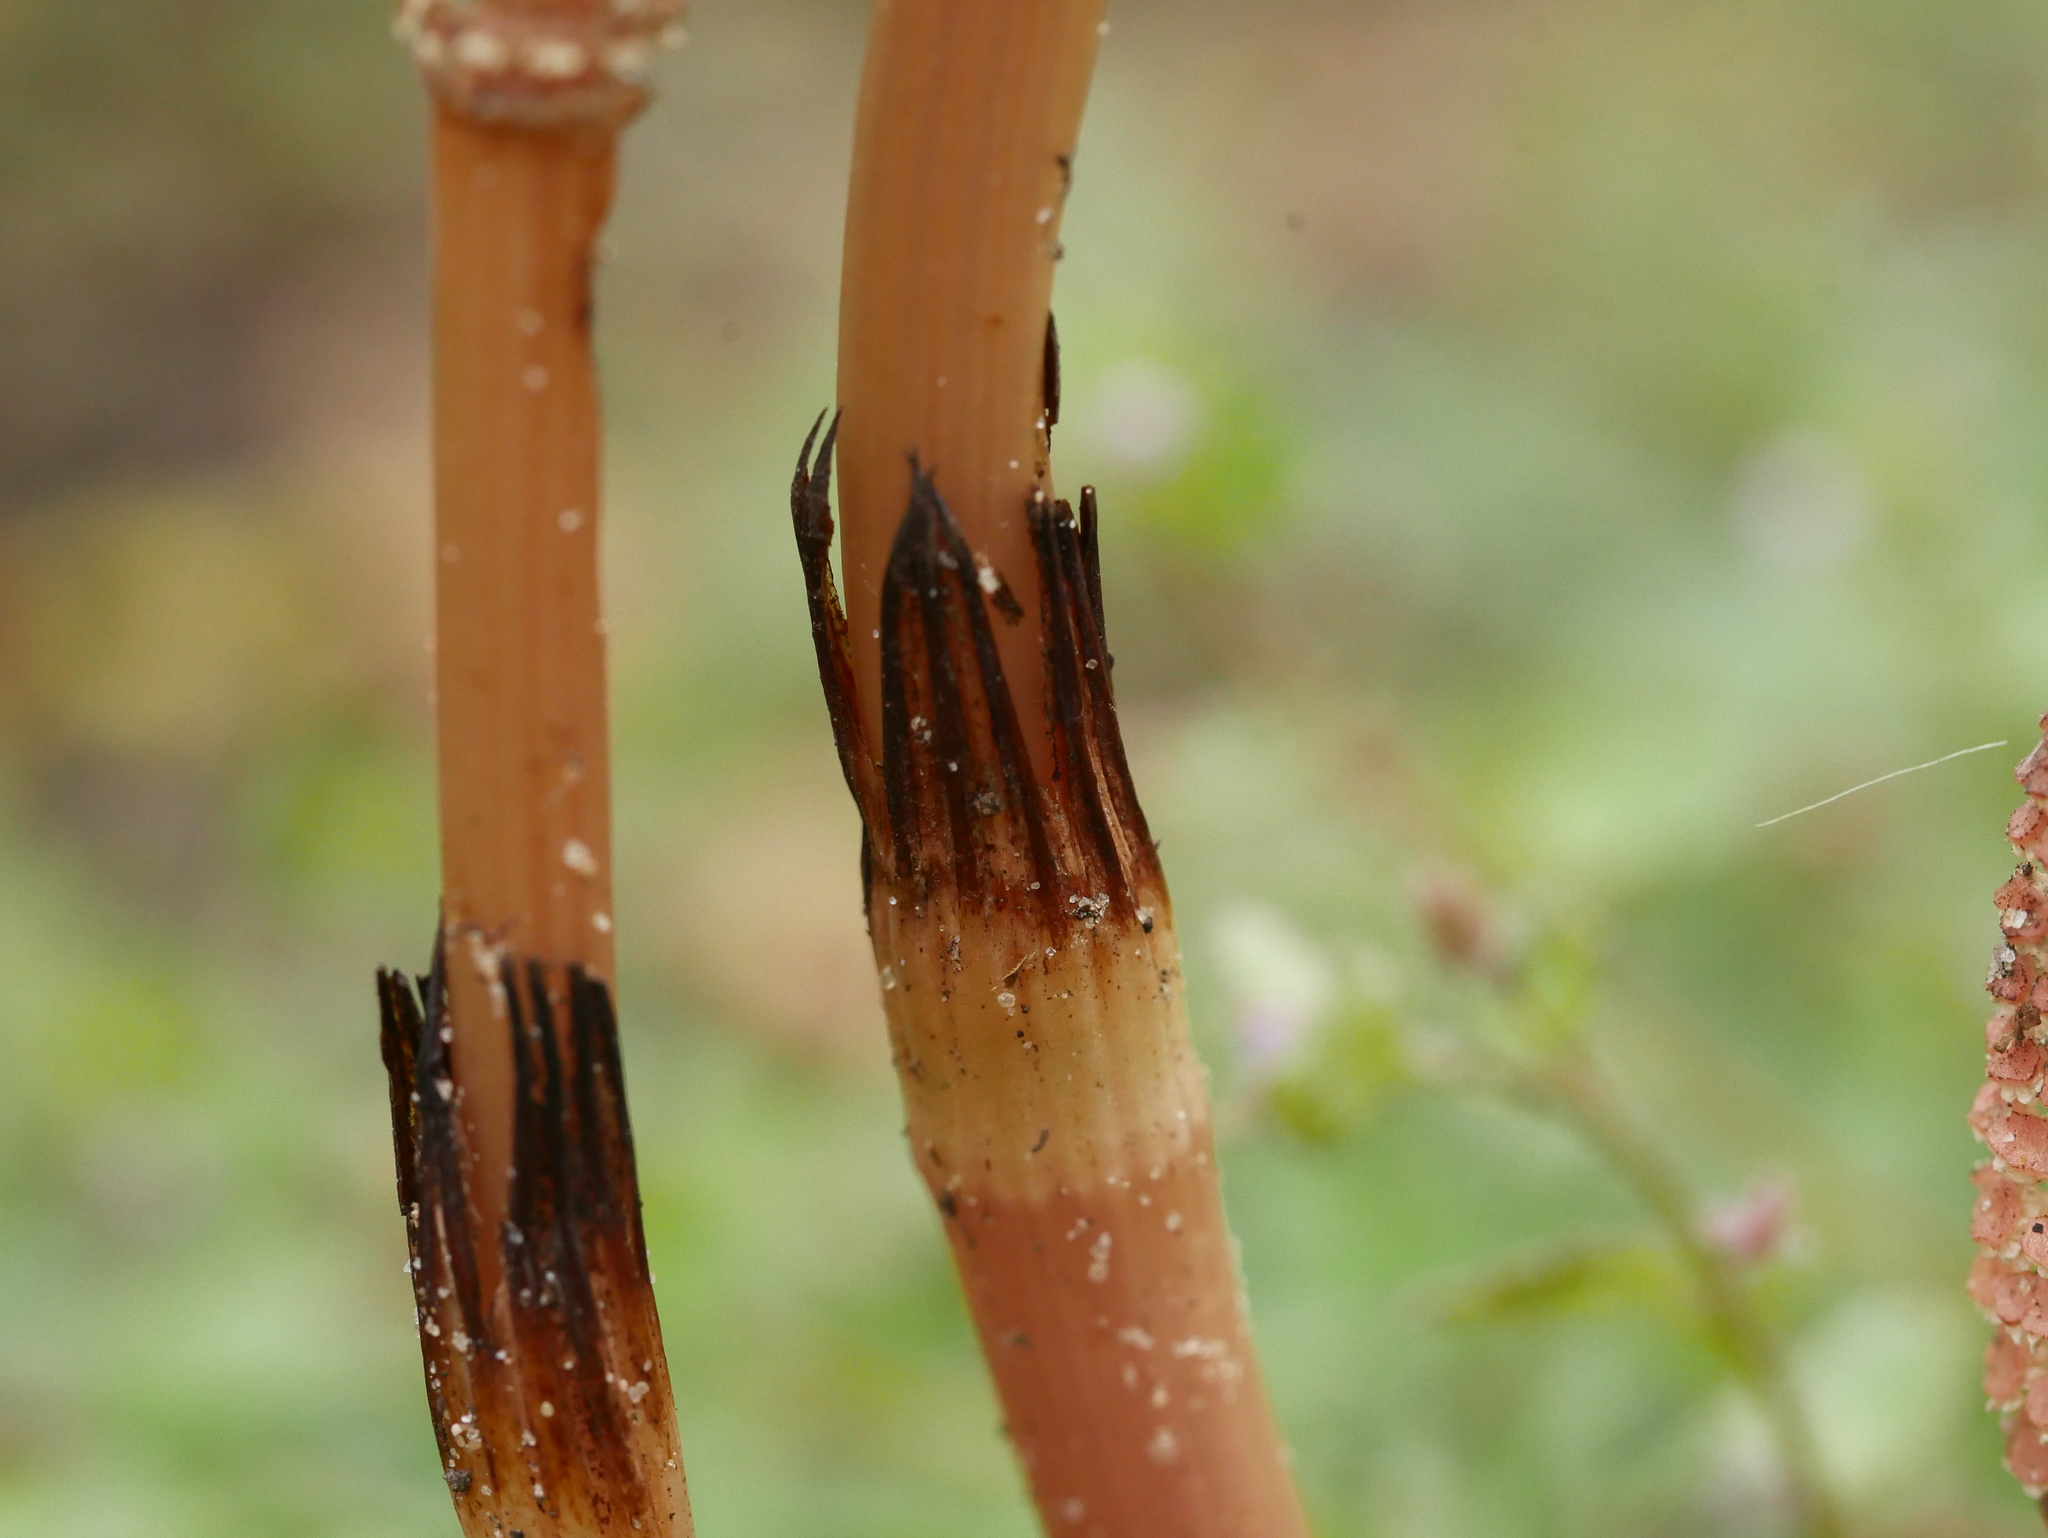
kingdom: Plantae
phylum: Tracheophyta
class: Polypodiopsida
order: Equisetales
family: Equisetaceae
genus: Equisetum
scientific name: Equisetum arvense
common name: Field horsetail
